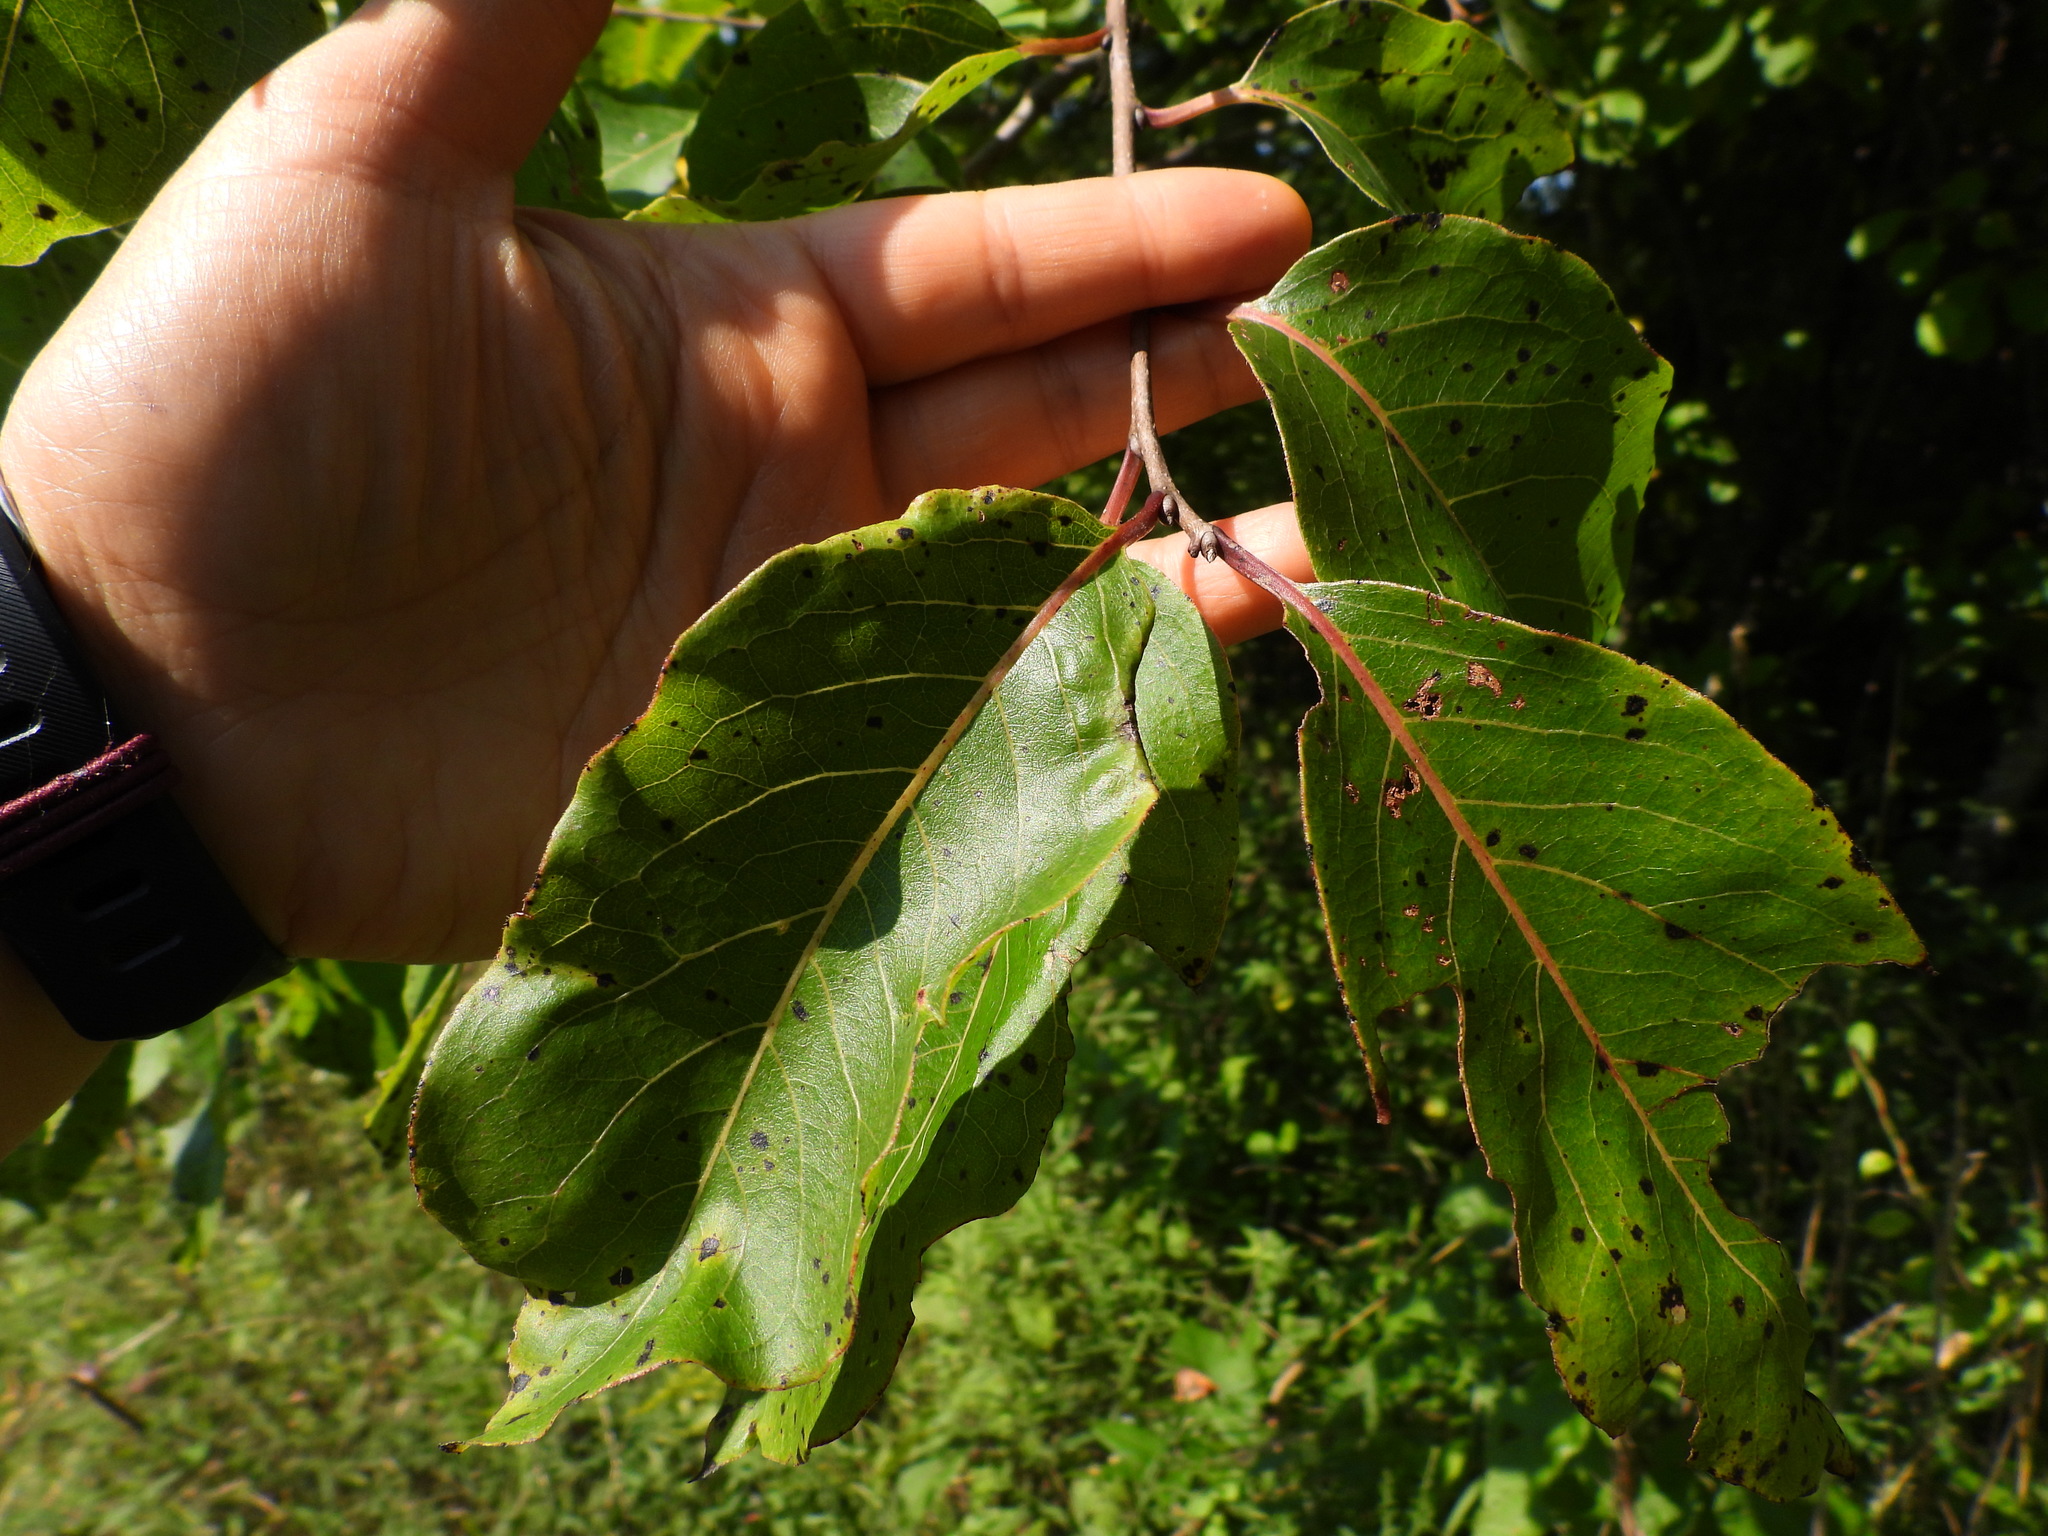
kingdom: Plantae
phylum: Tracheophyta
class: Magnoliopsida
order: Ericales
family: Ebenaceae
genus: Diospyros
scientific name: Diospyros virginiana
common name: Persimmon
